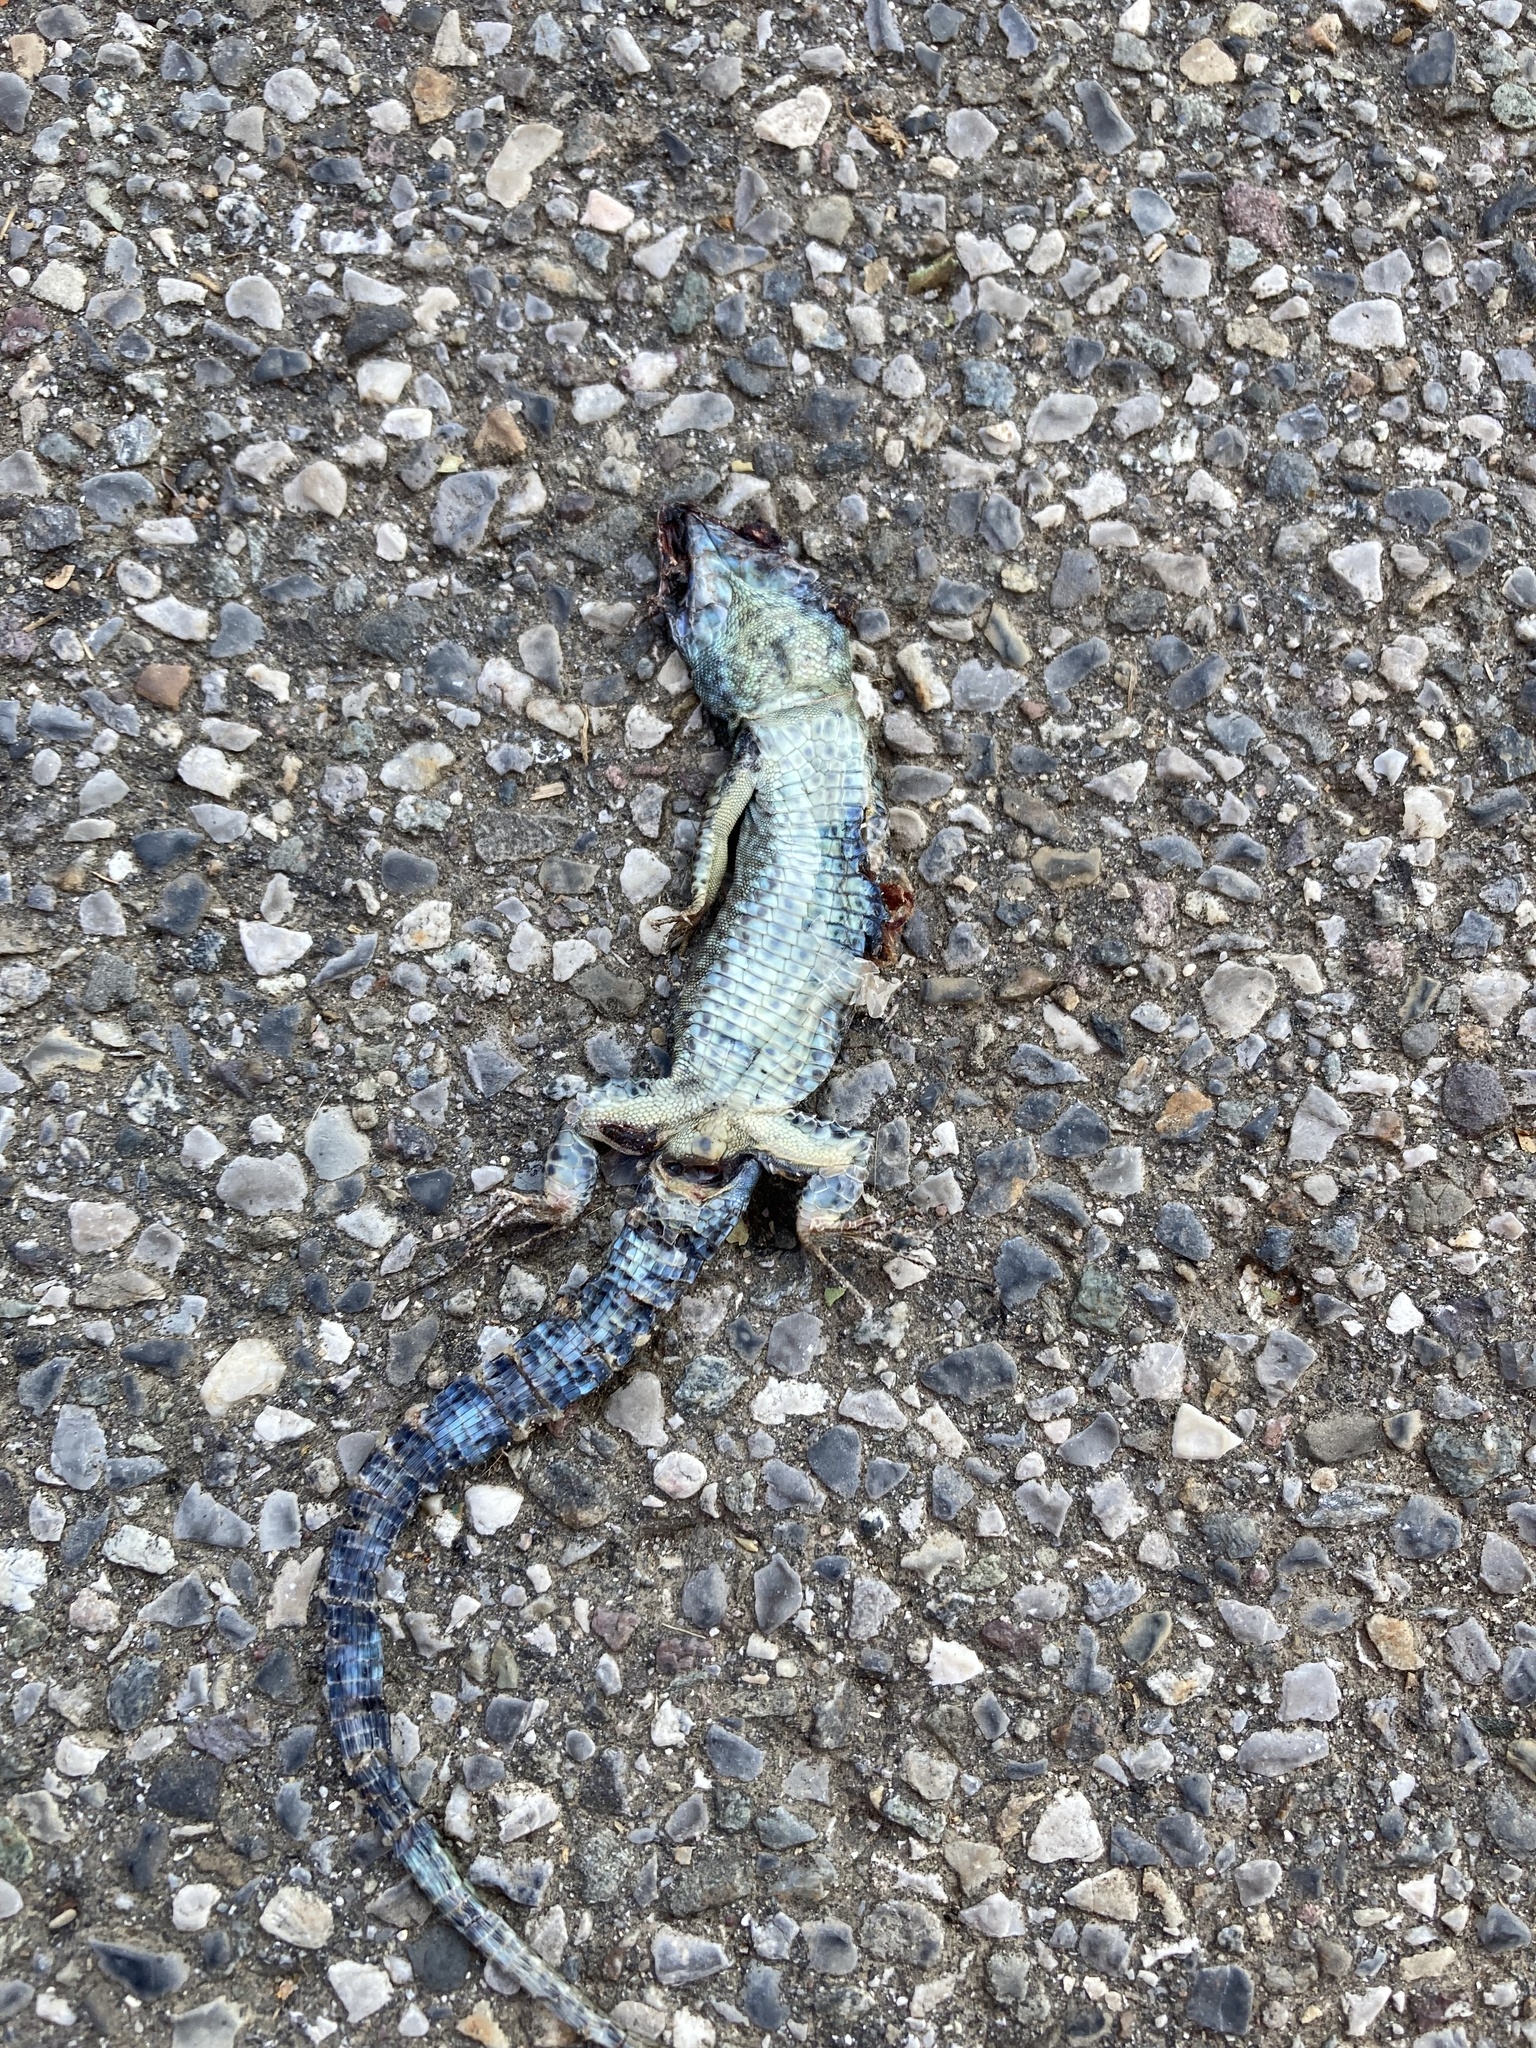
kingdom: Animalia
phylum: Chordata
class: Squamata
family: Lacertidae
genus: Podarcis
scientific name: Podarcis muralis
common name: Common wall lizard
